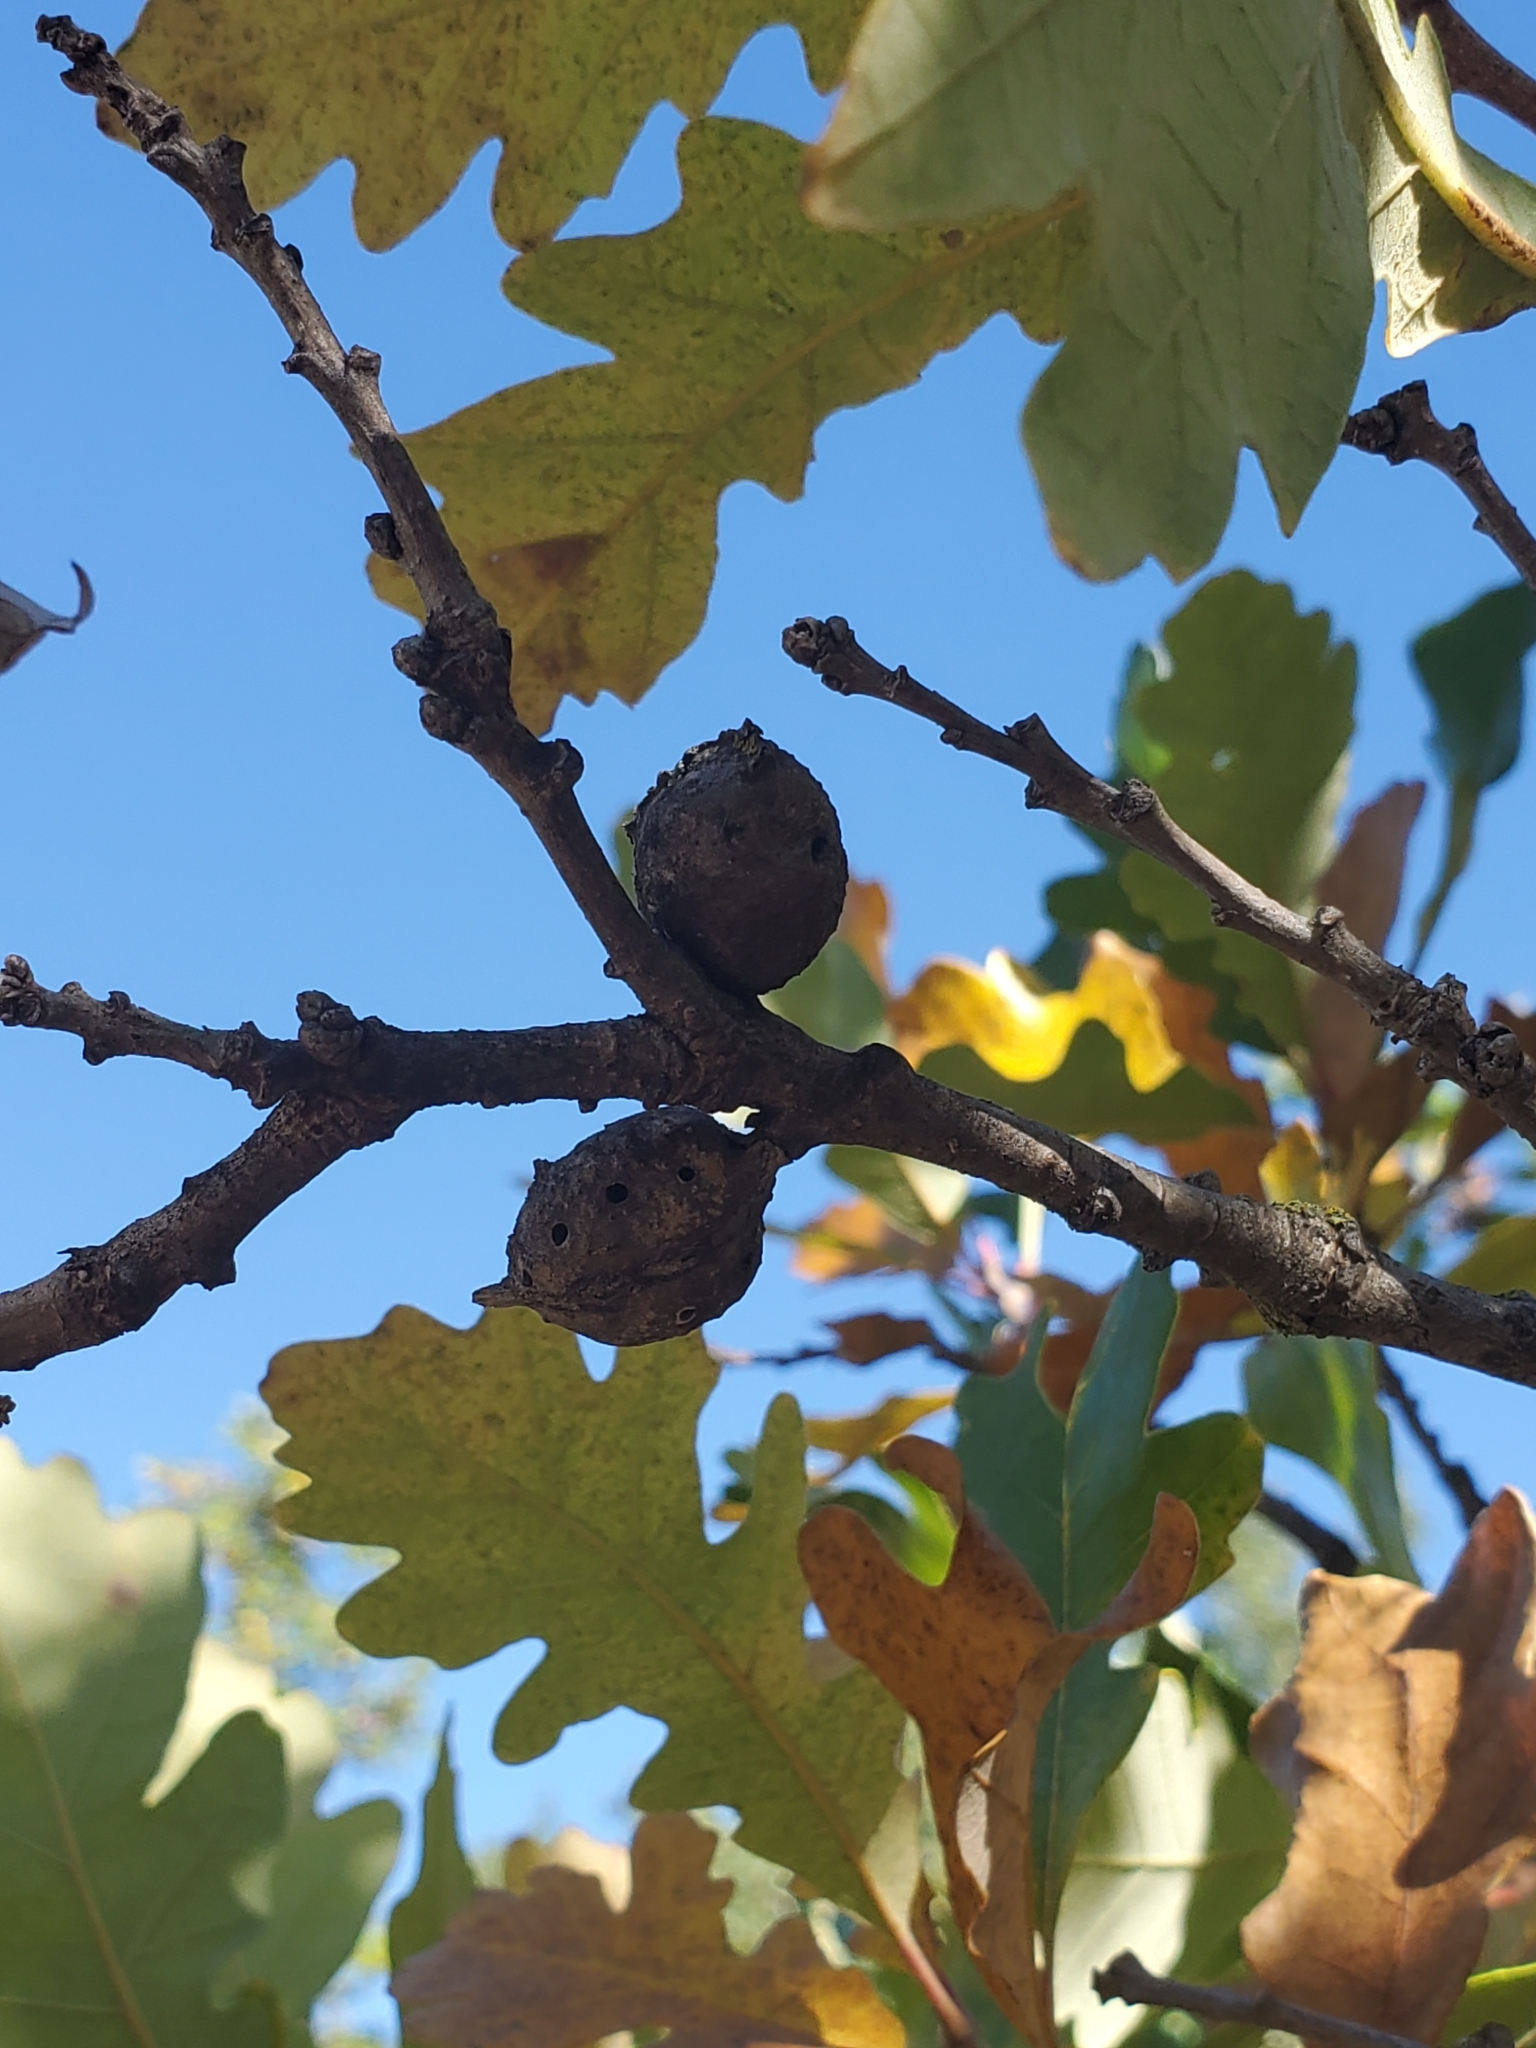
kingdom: Animalia
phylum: Arthropoda
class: Insecta
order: Hymenoptera
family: Cynipidae
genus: Andricus
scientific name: Andricus
